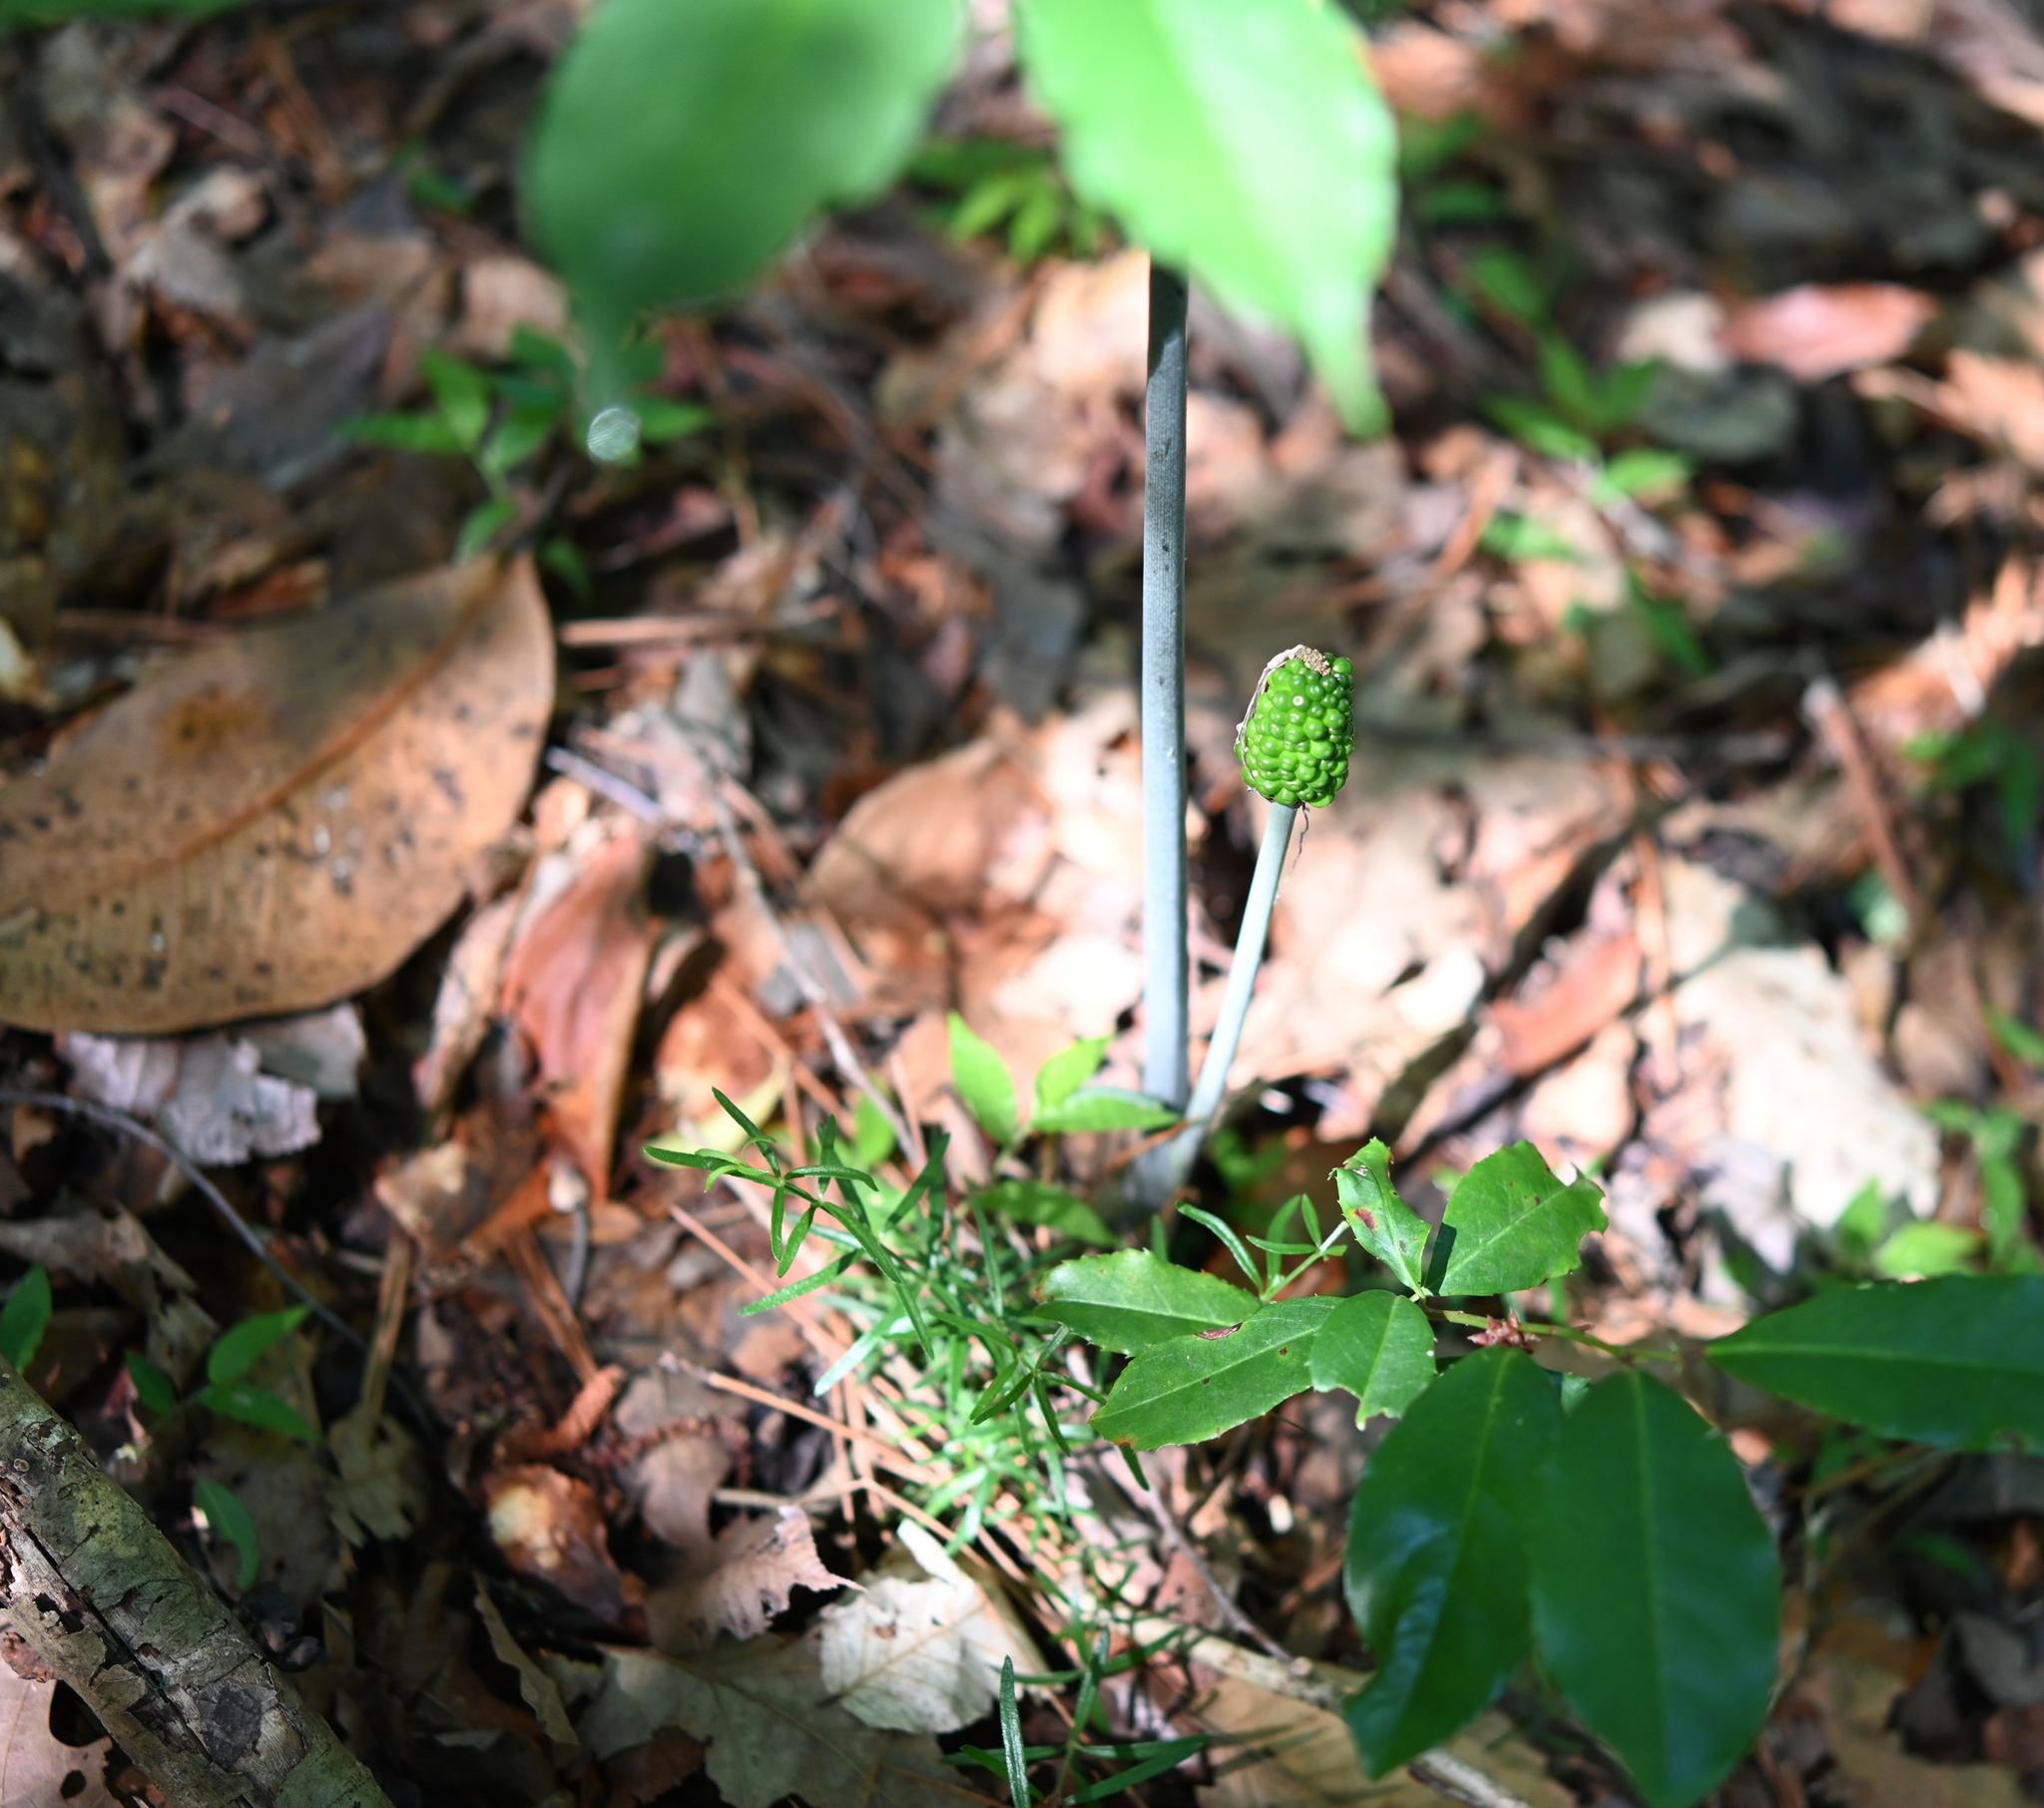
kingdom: Plantae
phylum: Tracheophyta
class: Liliopsida
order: Alismatales
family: Araceae
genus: Arisaema
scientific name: Arisaema dracontium
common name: Dragon-arum
